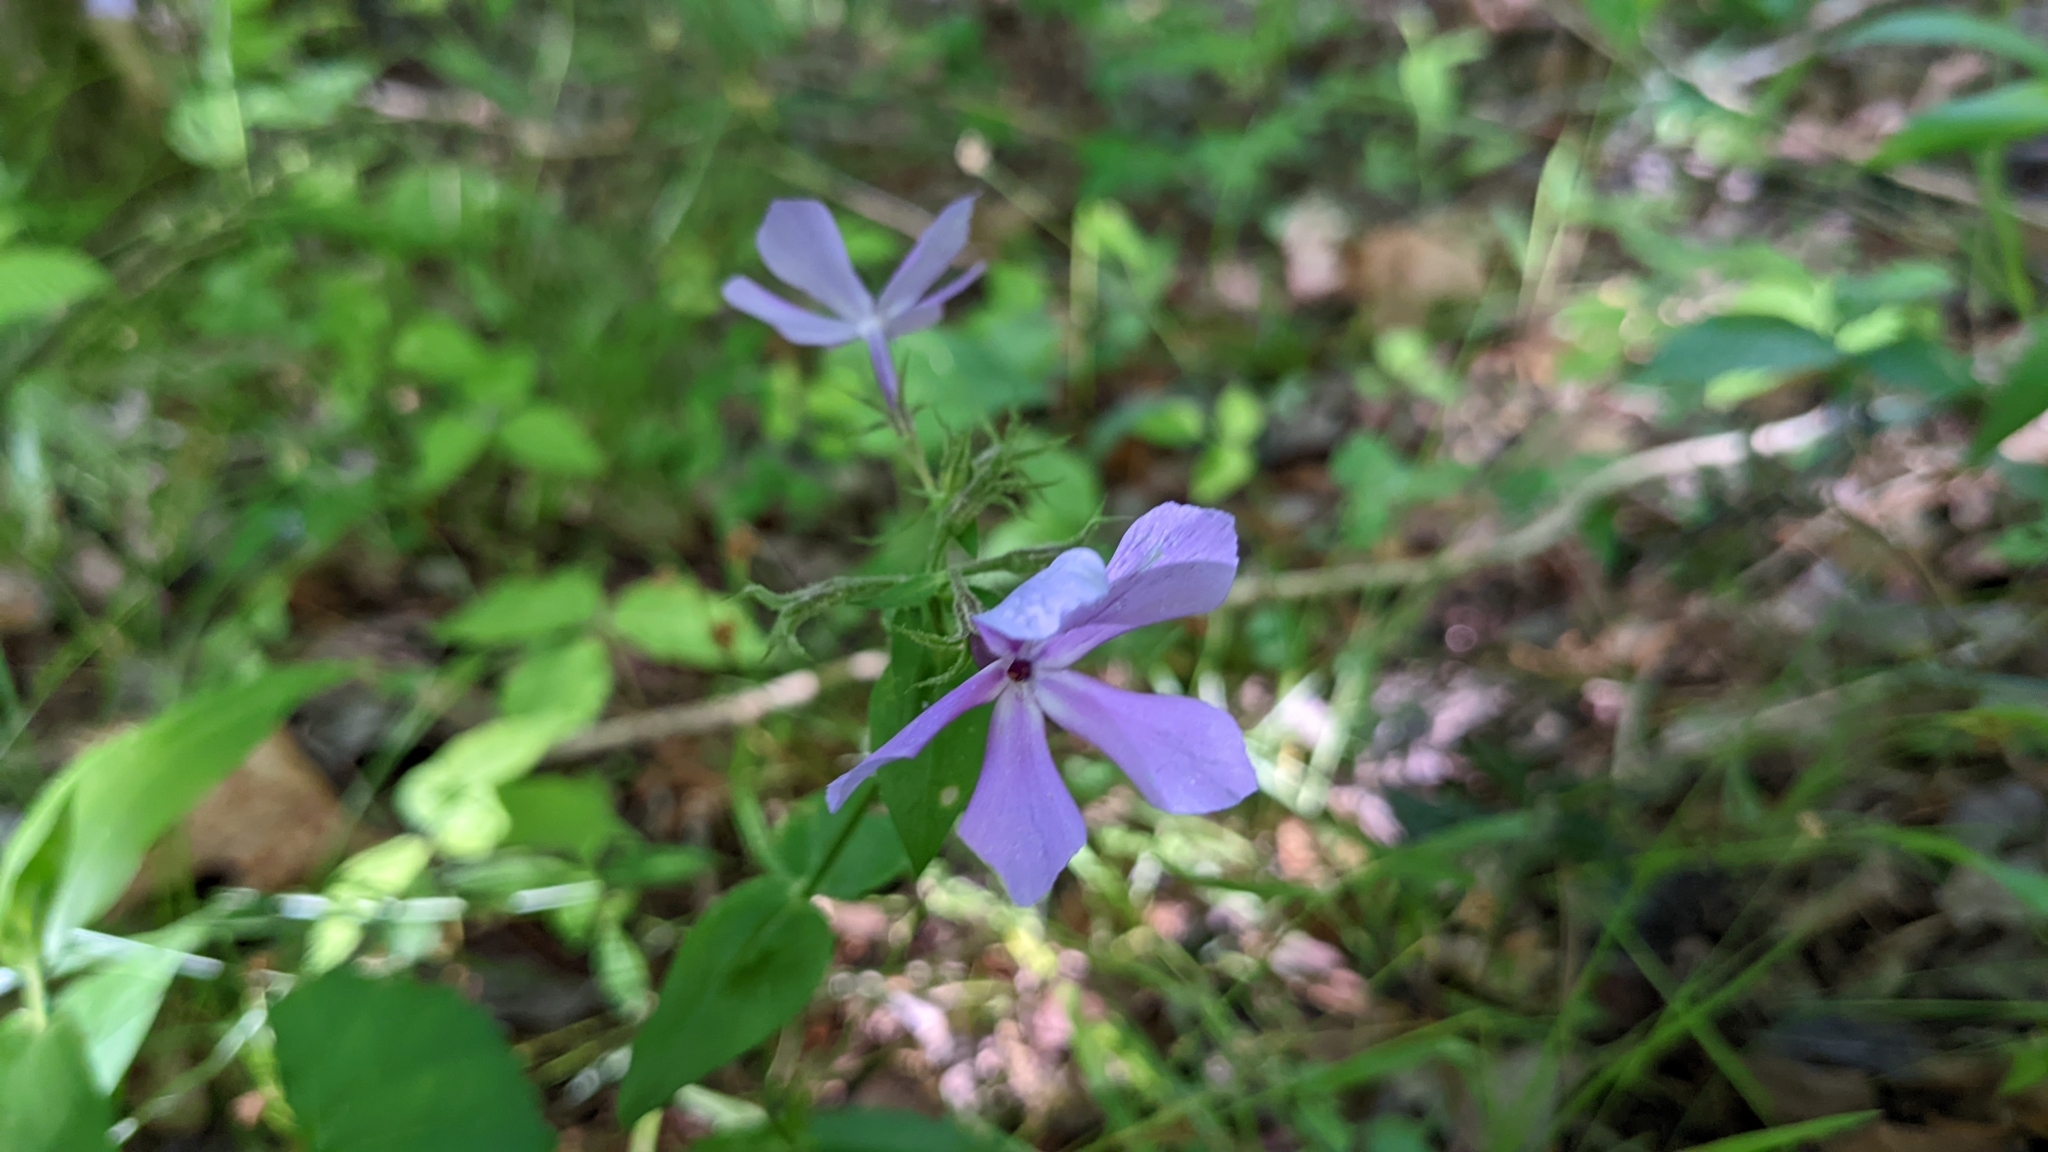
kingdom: Plantae
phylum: Tracheophyta
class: Magnoliopsida
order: Ericales
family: Polemoniaceae
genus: Phlox
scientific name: Phlox pilosa
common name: Prairie phlox
